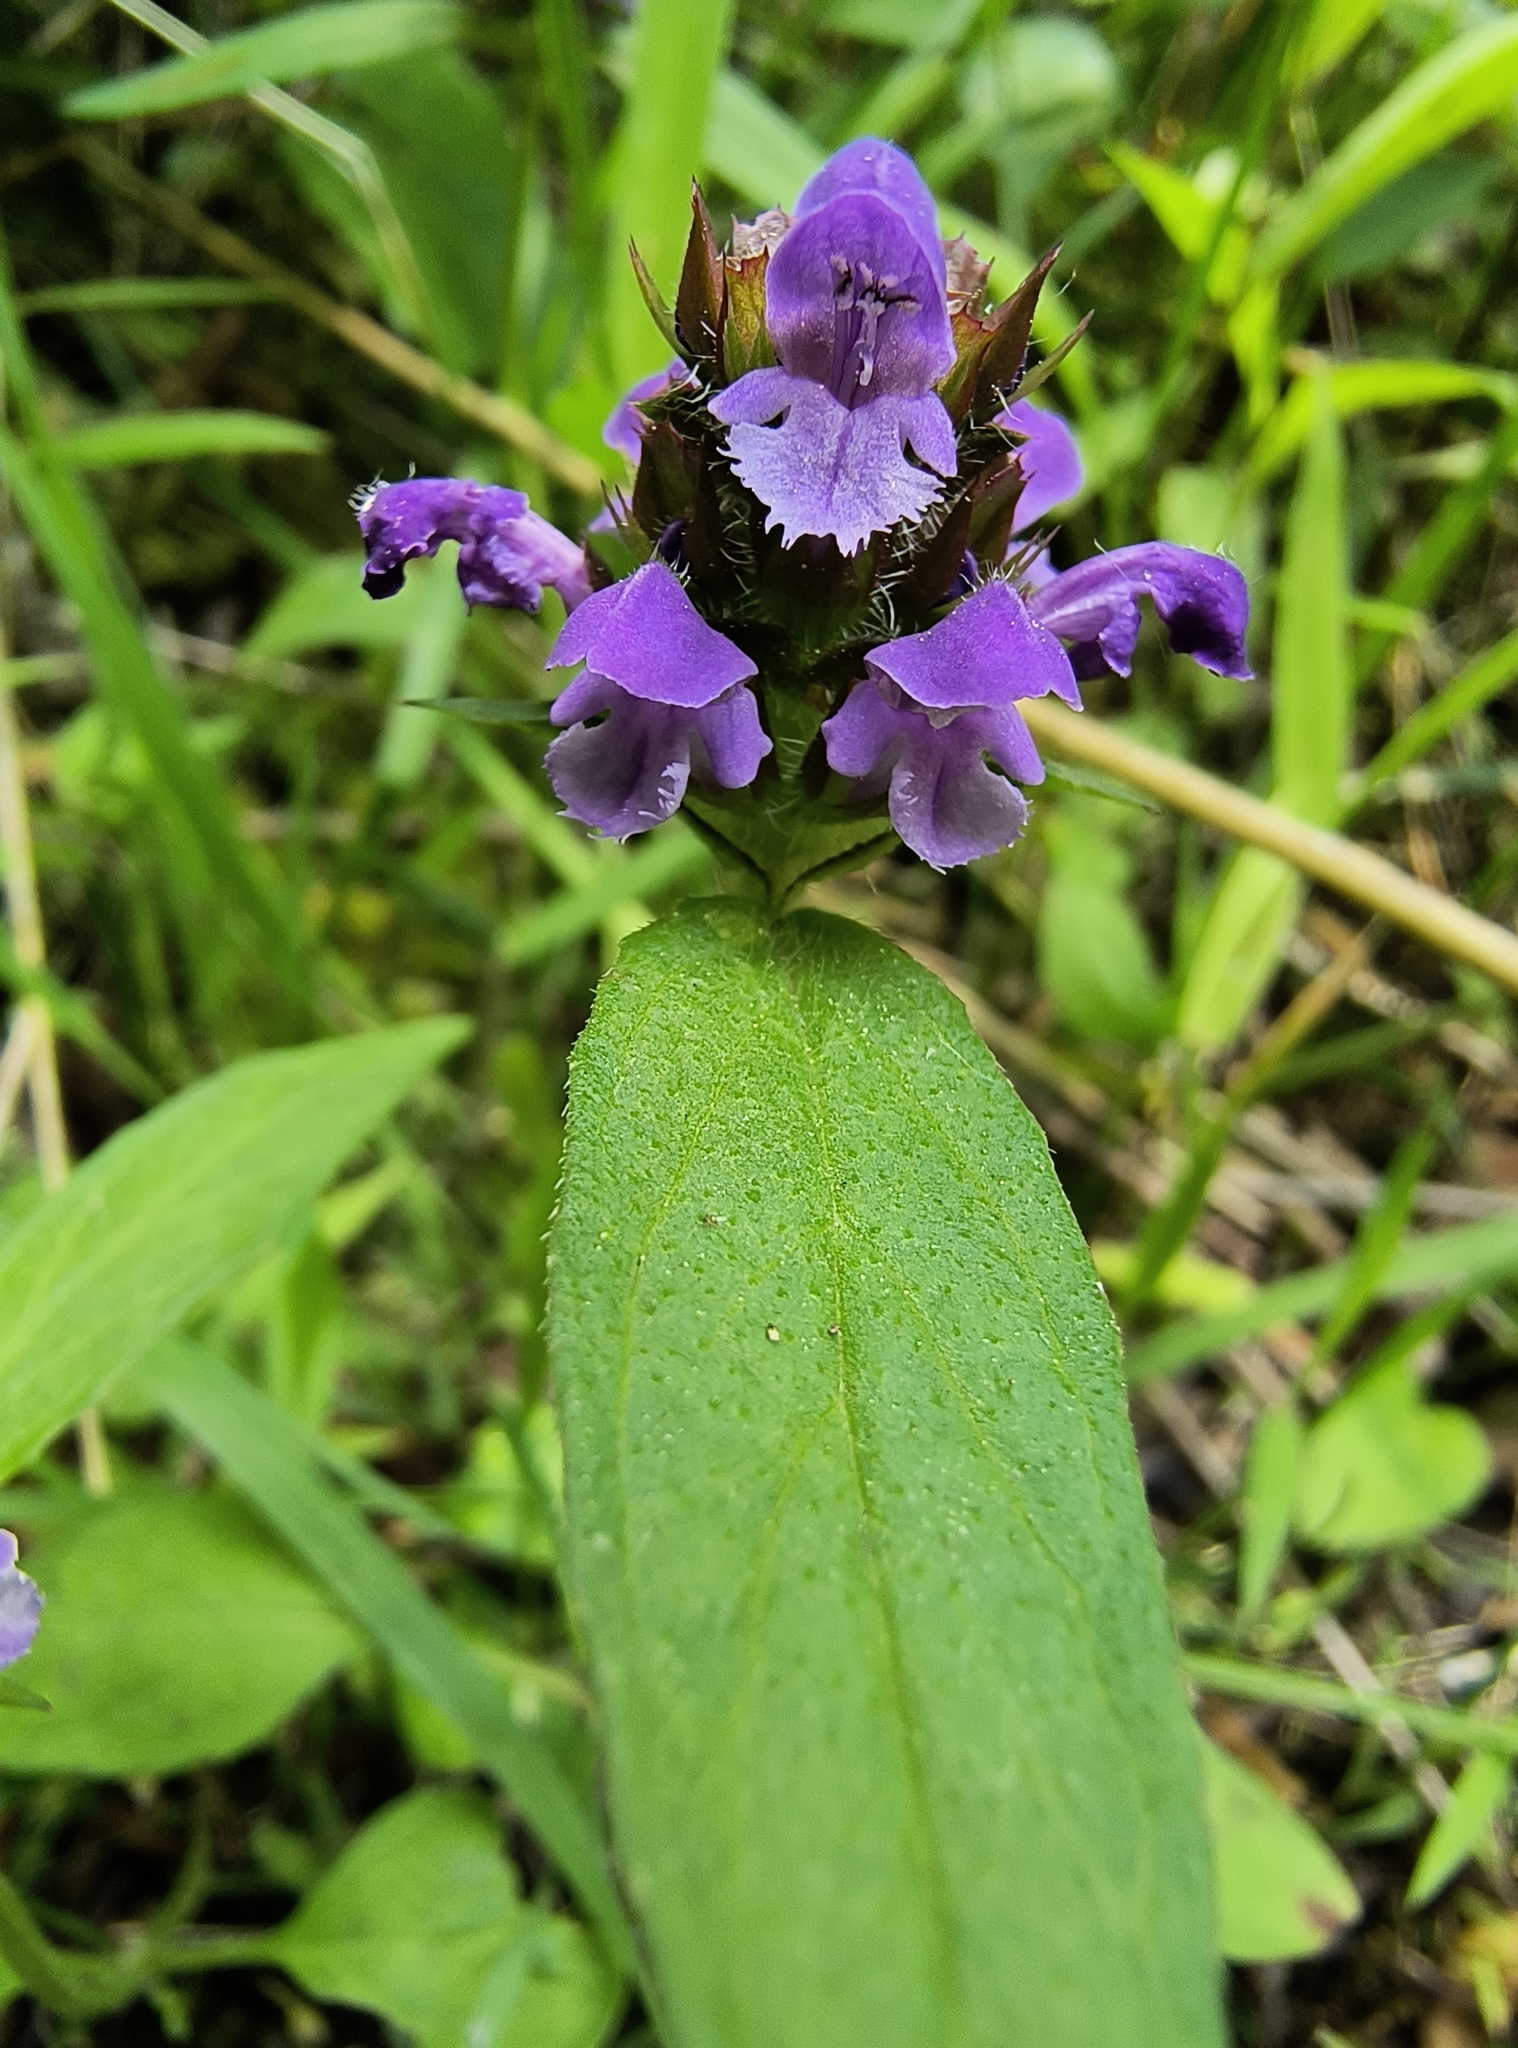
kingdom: Plantae
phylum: Tracheophyta
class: Magnoliopsida
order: Lamiales
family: Lamiaceae
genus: Prunella
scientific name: Prunella vulgaris
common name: Heal-all
